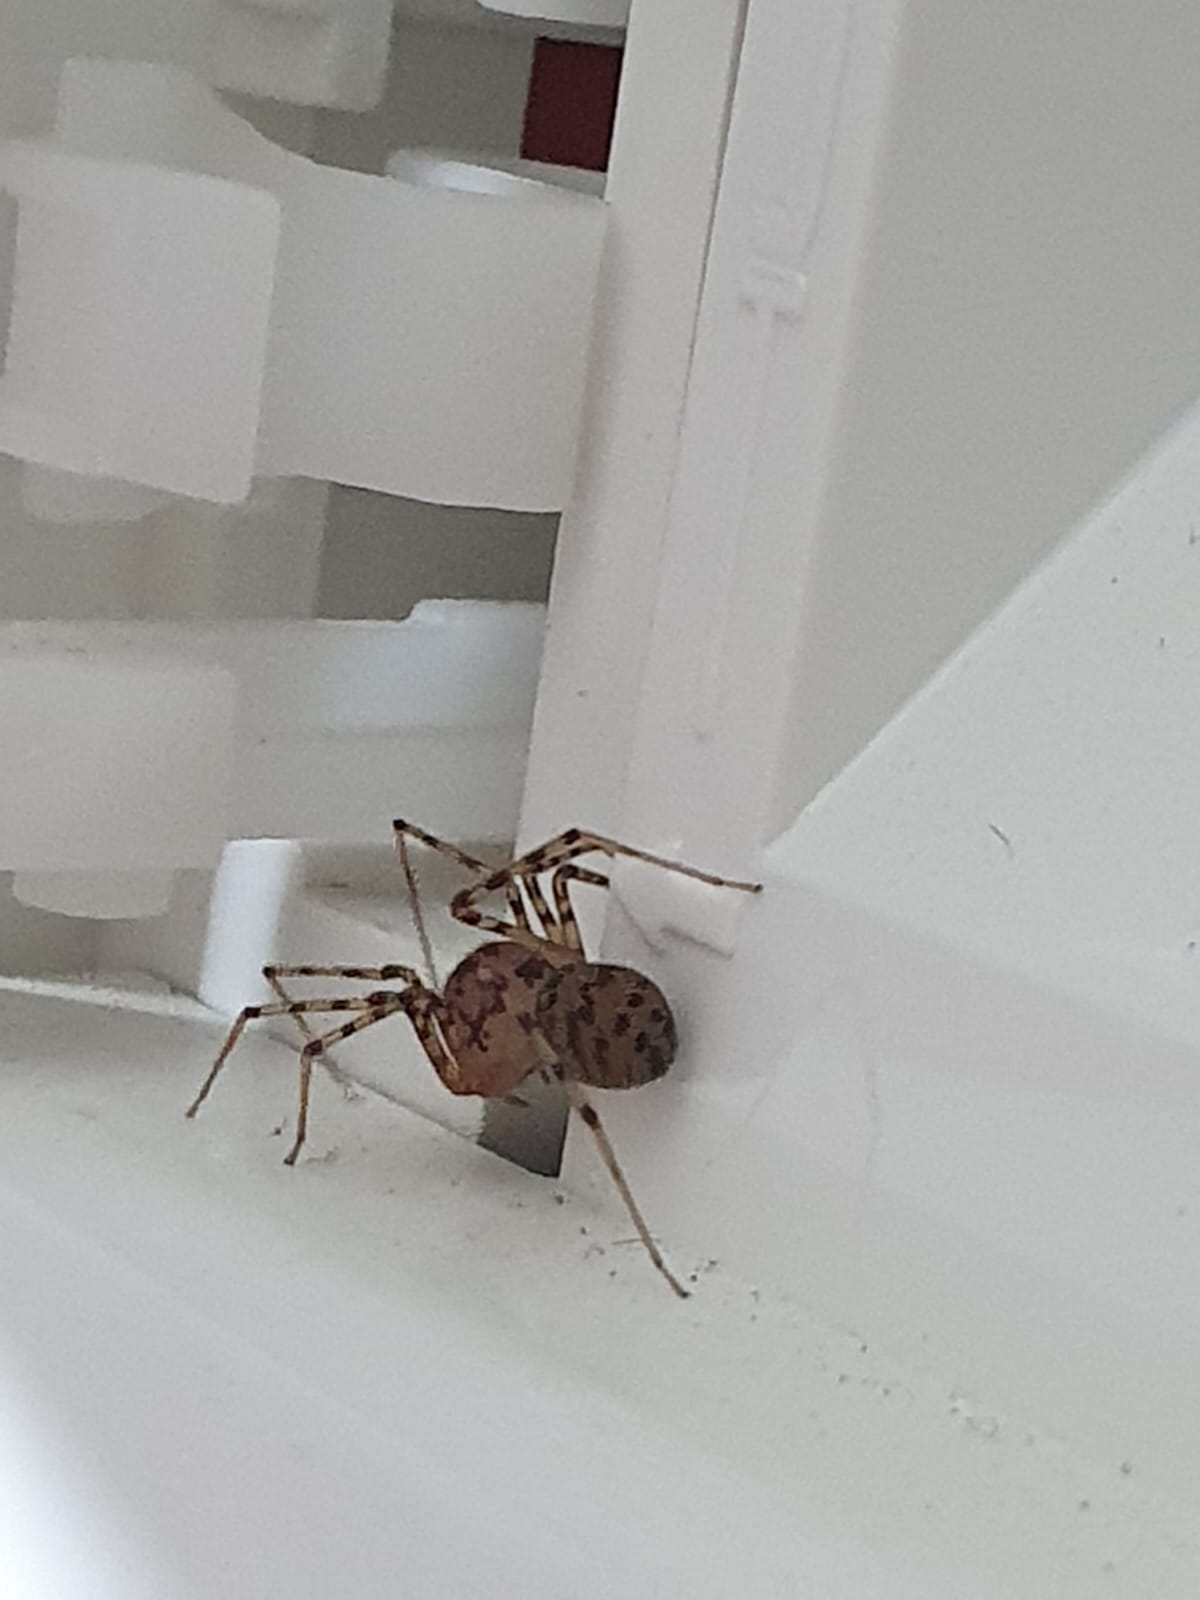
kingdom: Animalia
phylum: Arthropoda
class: Arachnida
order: Araneae
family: Scytodidae
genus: Scytodes
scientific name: Scytodes thoracica
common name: Spitting spider
